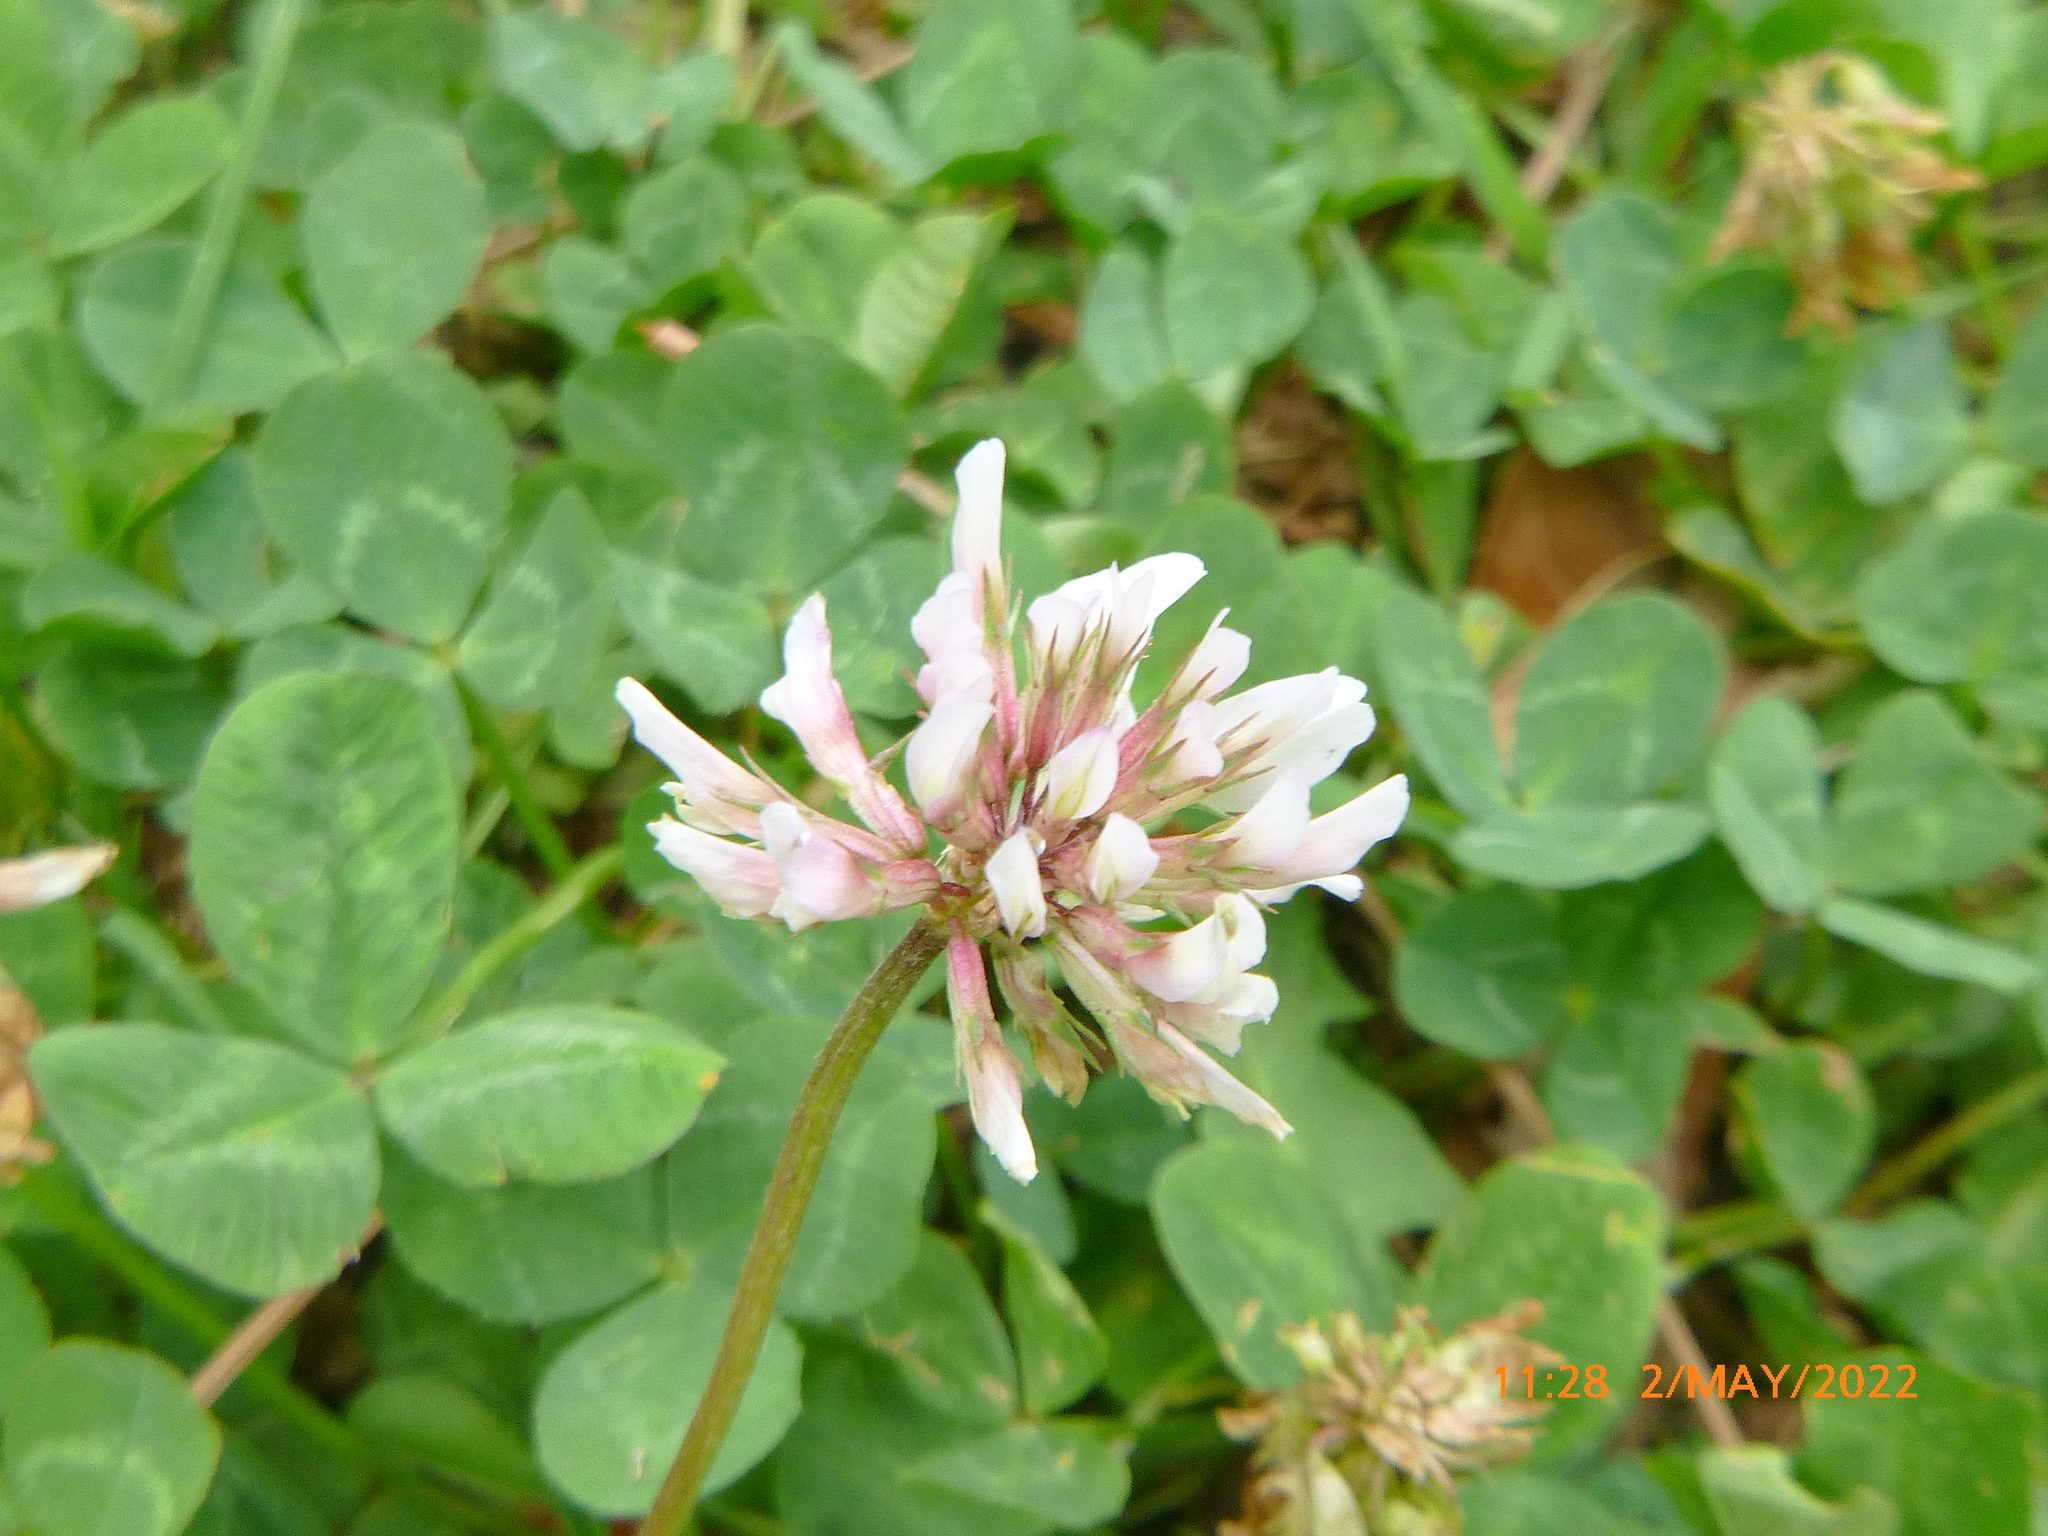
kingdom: Plantae
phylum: Tracheophyta
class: Magnoliopsida
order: Fabales
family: Fabaceae
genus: Trifolium
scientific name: Trifolium repens
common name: White clover
